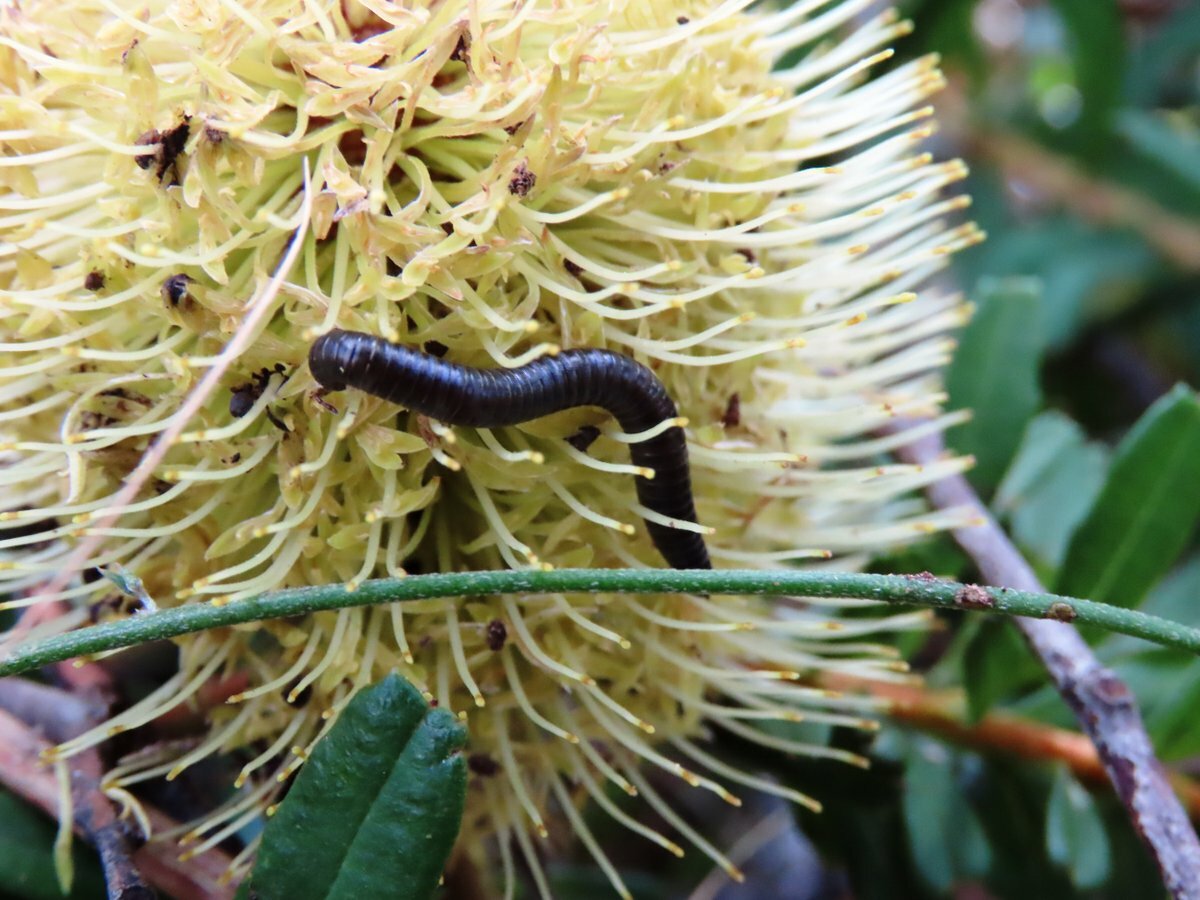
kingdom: Animalia
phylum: Arthropoda
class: Diplopoda
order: Julida
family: Julidae
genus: Ommatoiulus
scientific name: Ommatoiulus moreleti
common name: Portuguese millipede
